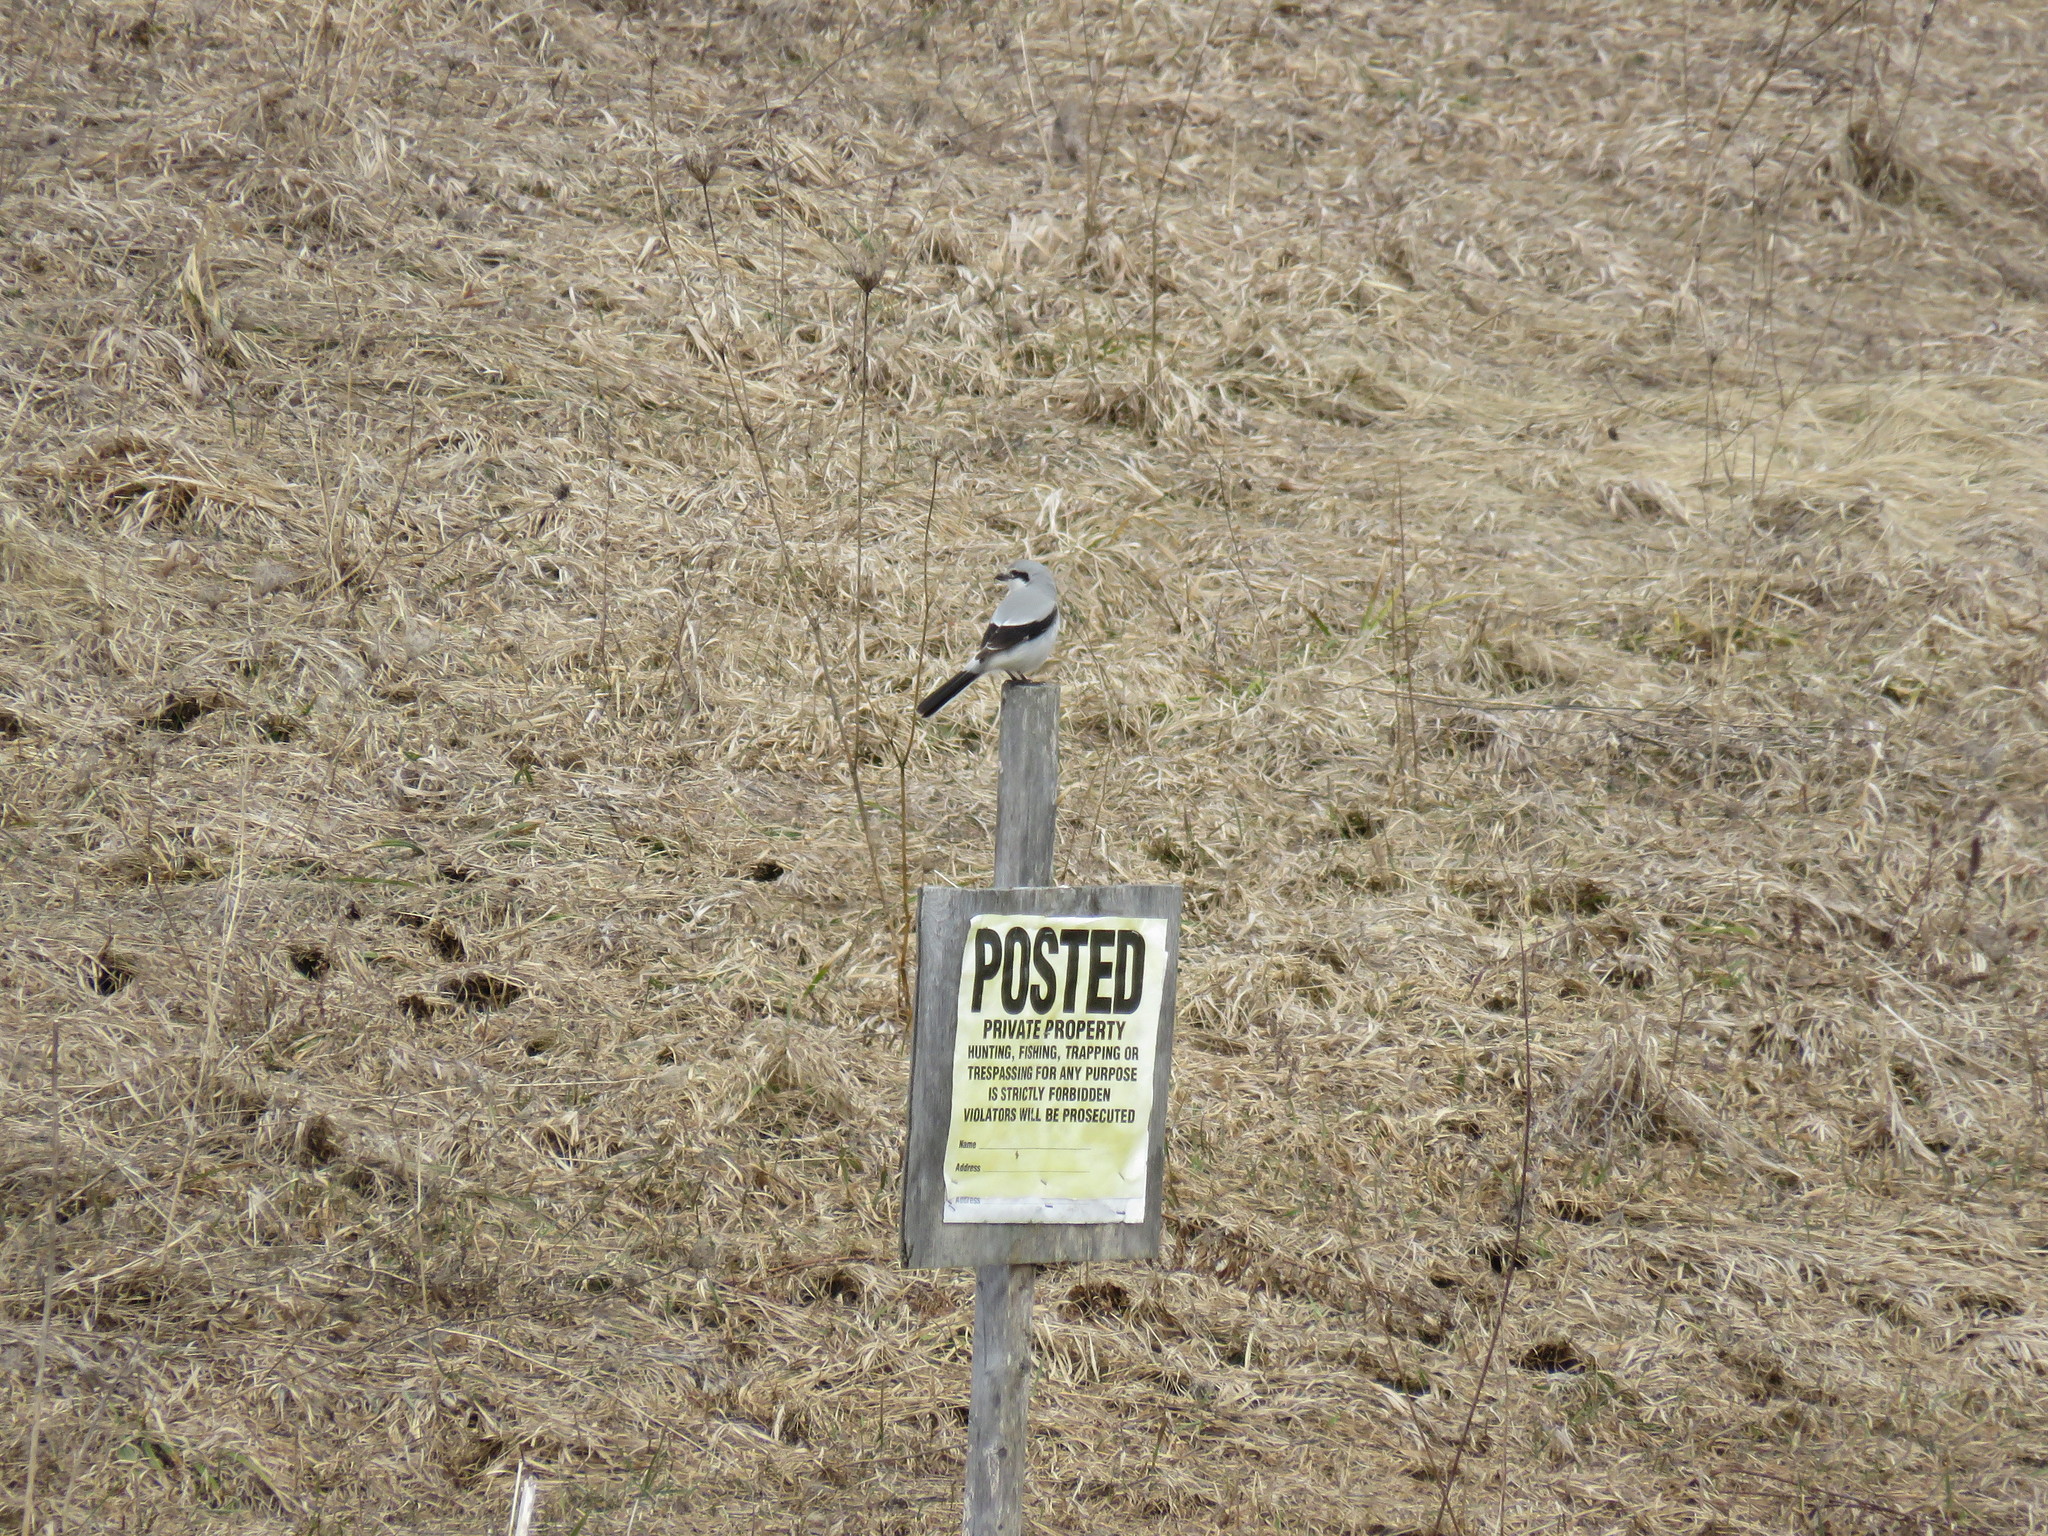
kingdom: Animalia
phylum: Chordata
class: Aves
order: Passeriformes
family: Laniidae
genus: Lanius
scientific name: Lanius borealis
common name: Northern shrike
